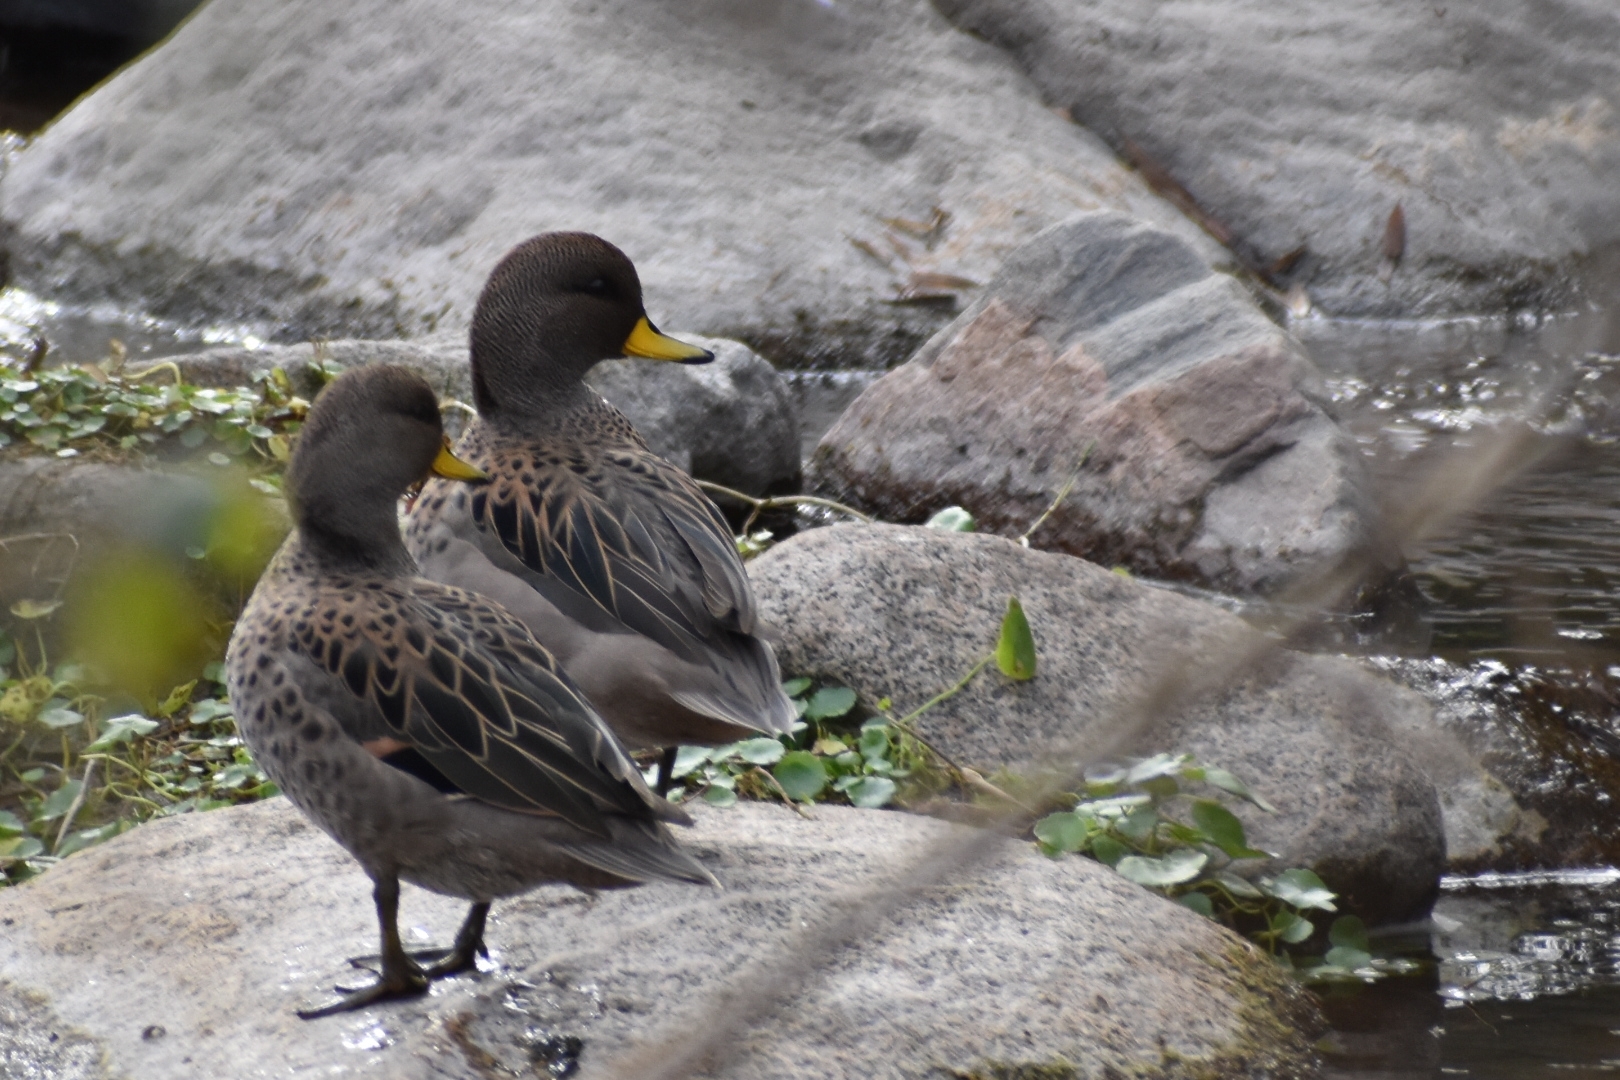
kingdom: Animalia
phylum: Chordata
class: Aves
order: Anseriformes
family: Anatidae
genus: Anas
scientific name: Anas flavirostris
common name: Yellow-billed teal
